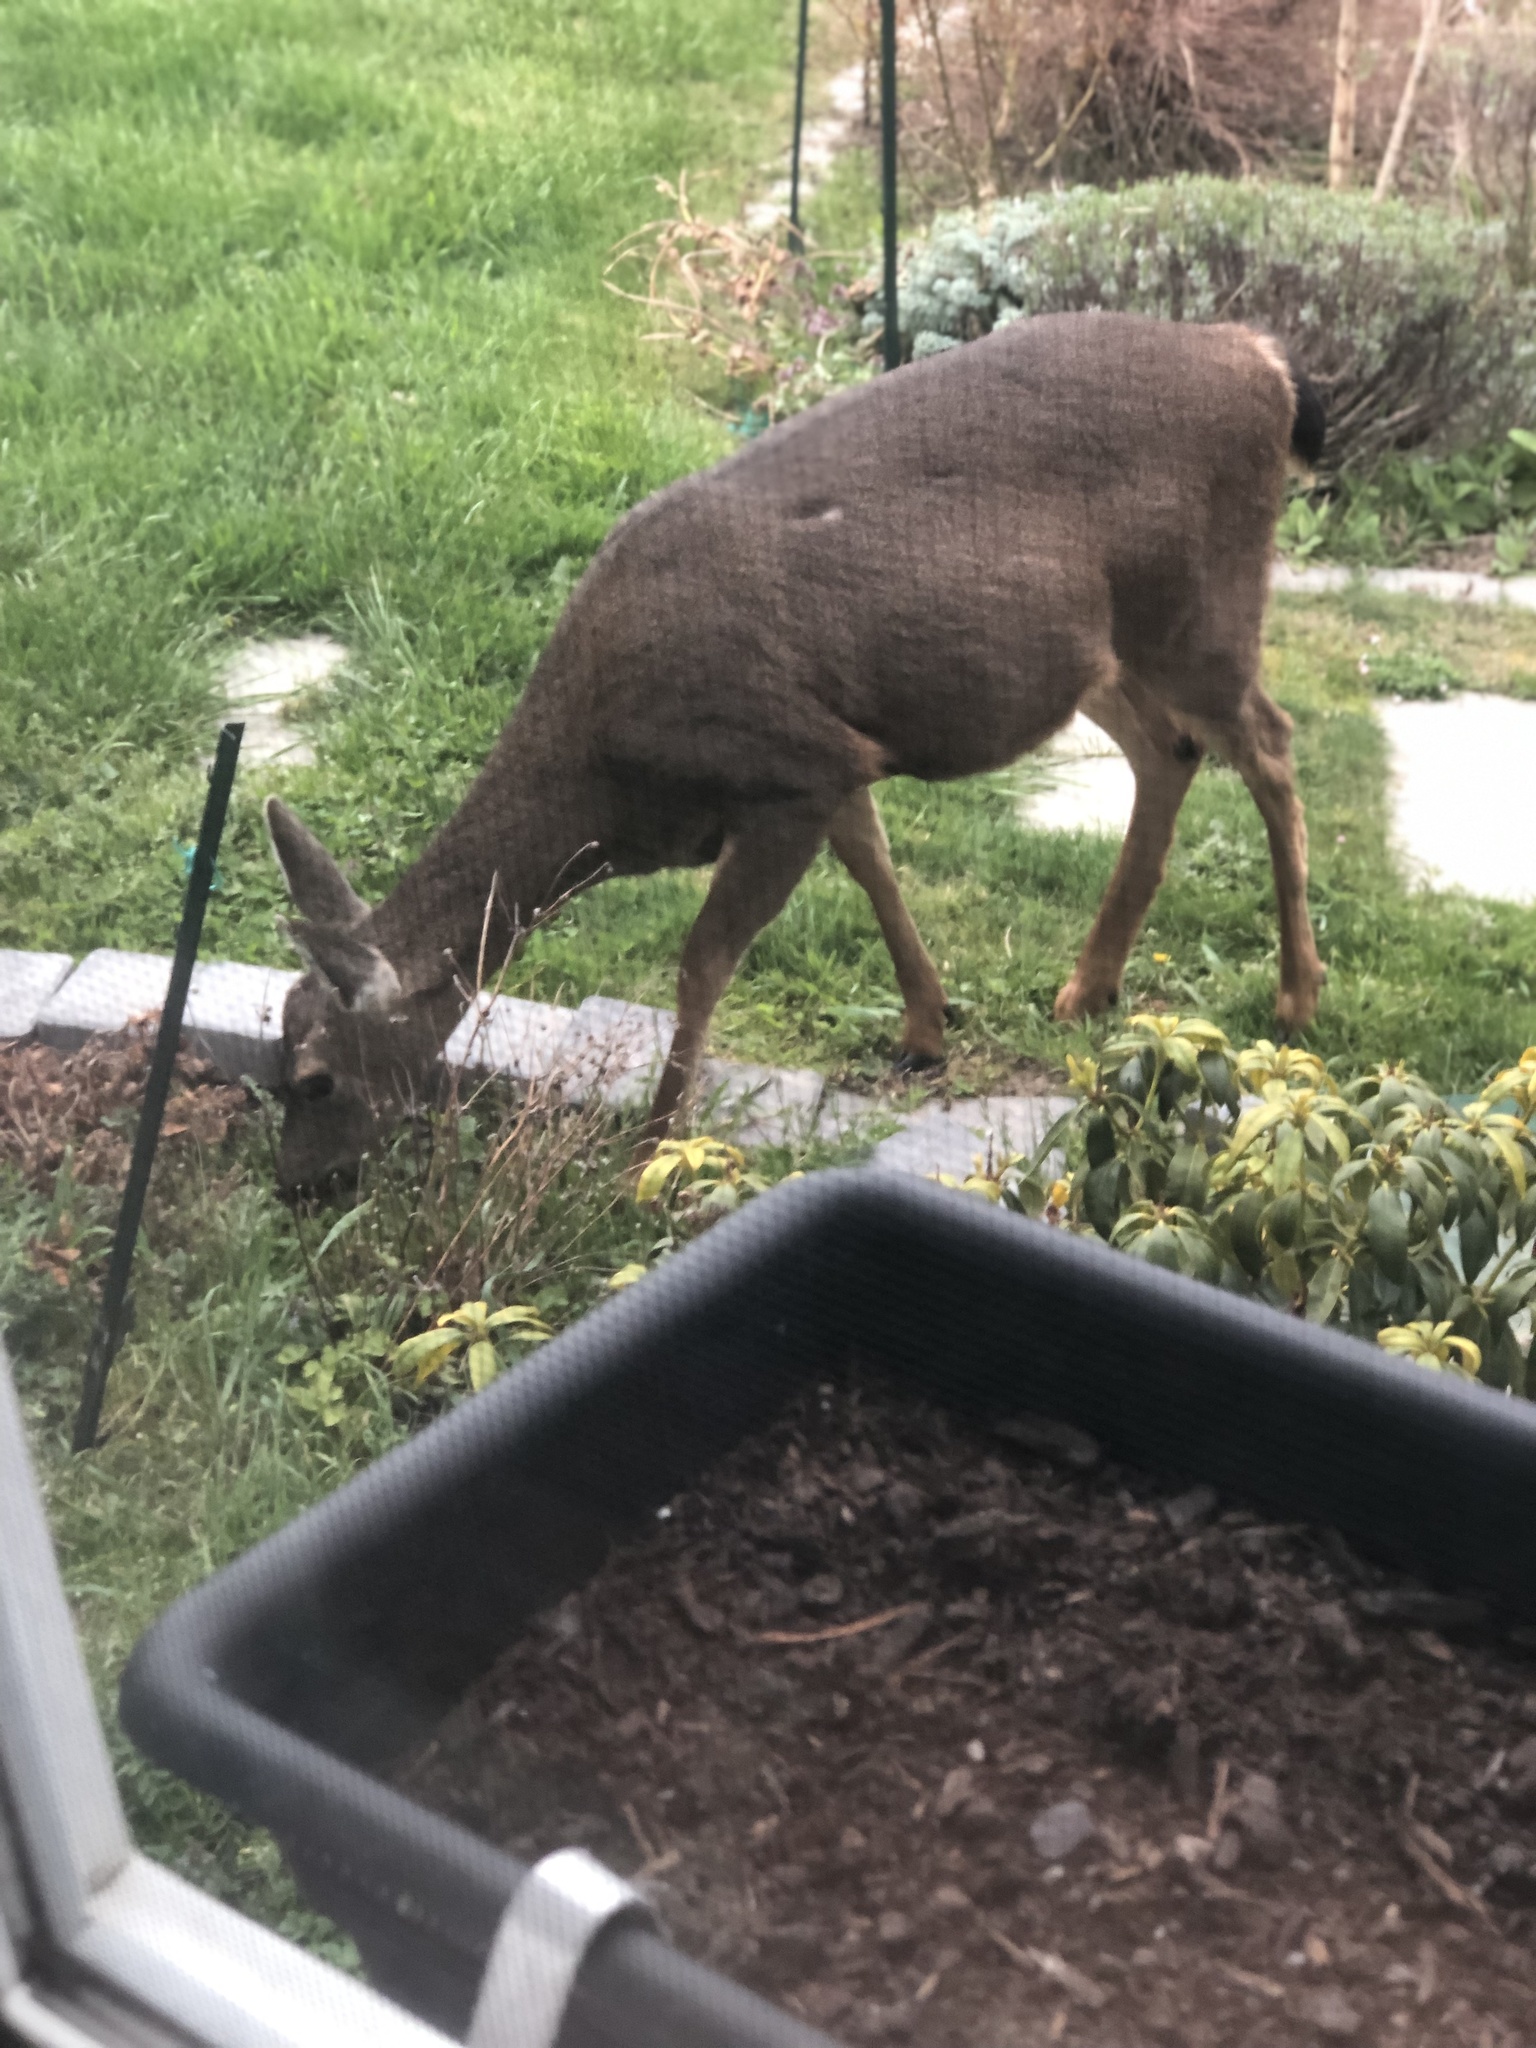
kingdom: Animalia
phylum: Chordata
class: Mammalia
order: Artiodactyla
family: Cervidae
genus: Odocoileus
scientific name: Odocoileus hemionus
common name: Mule deer
